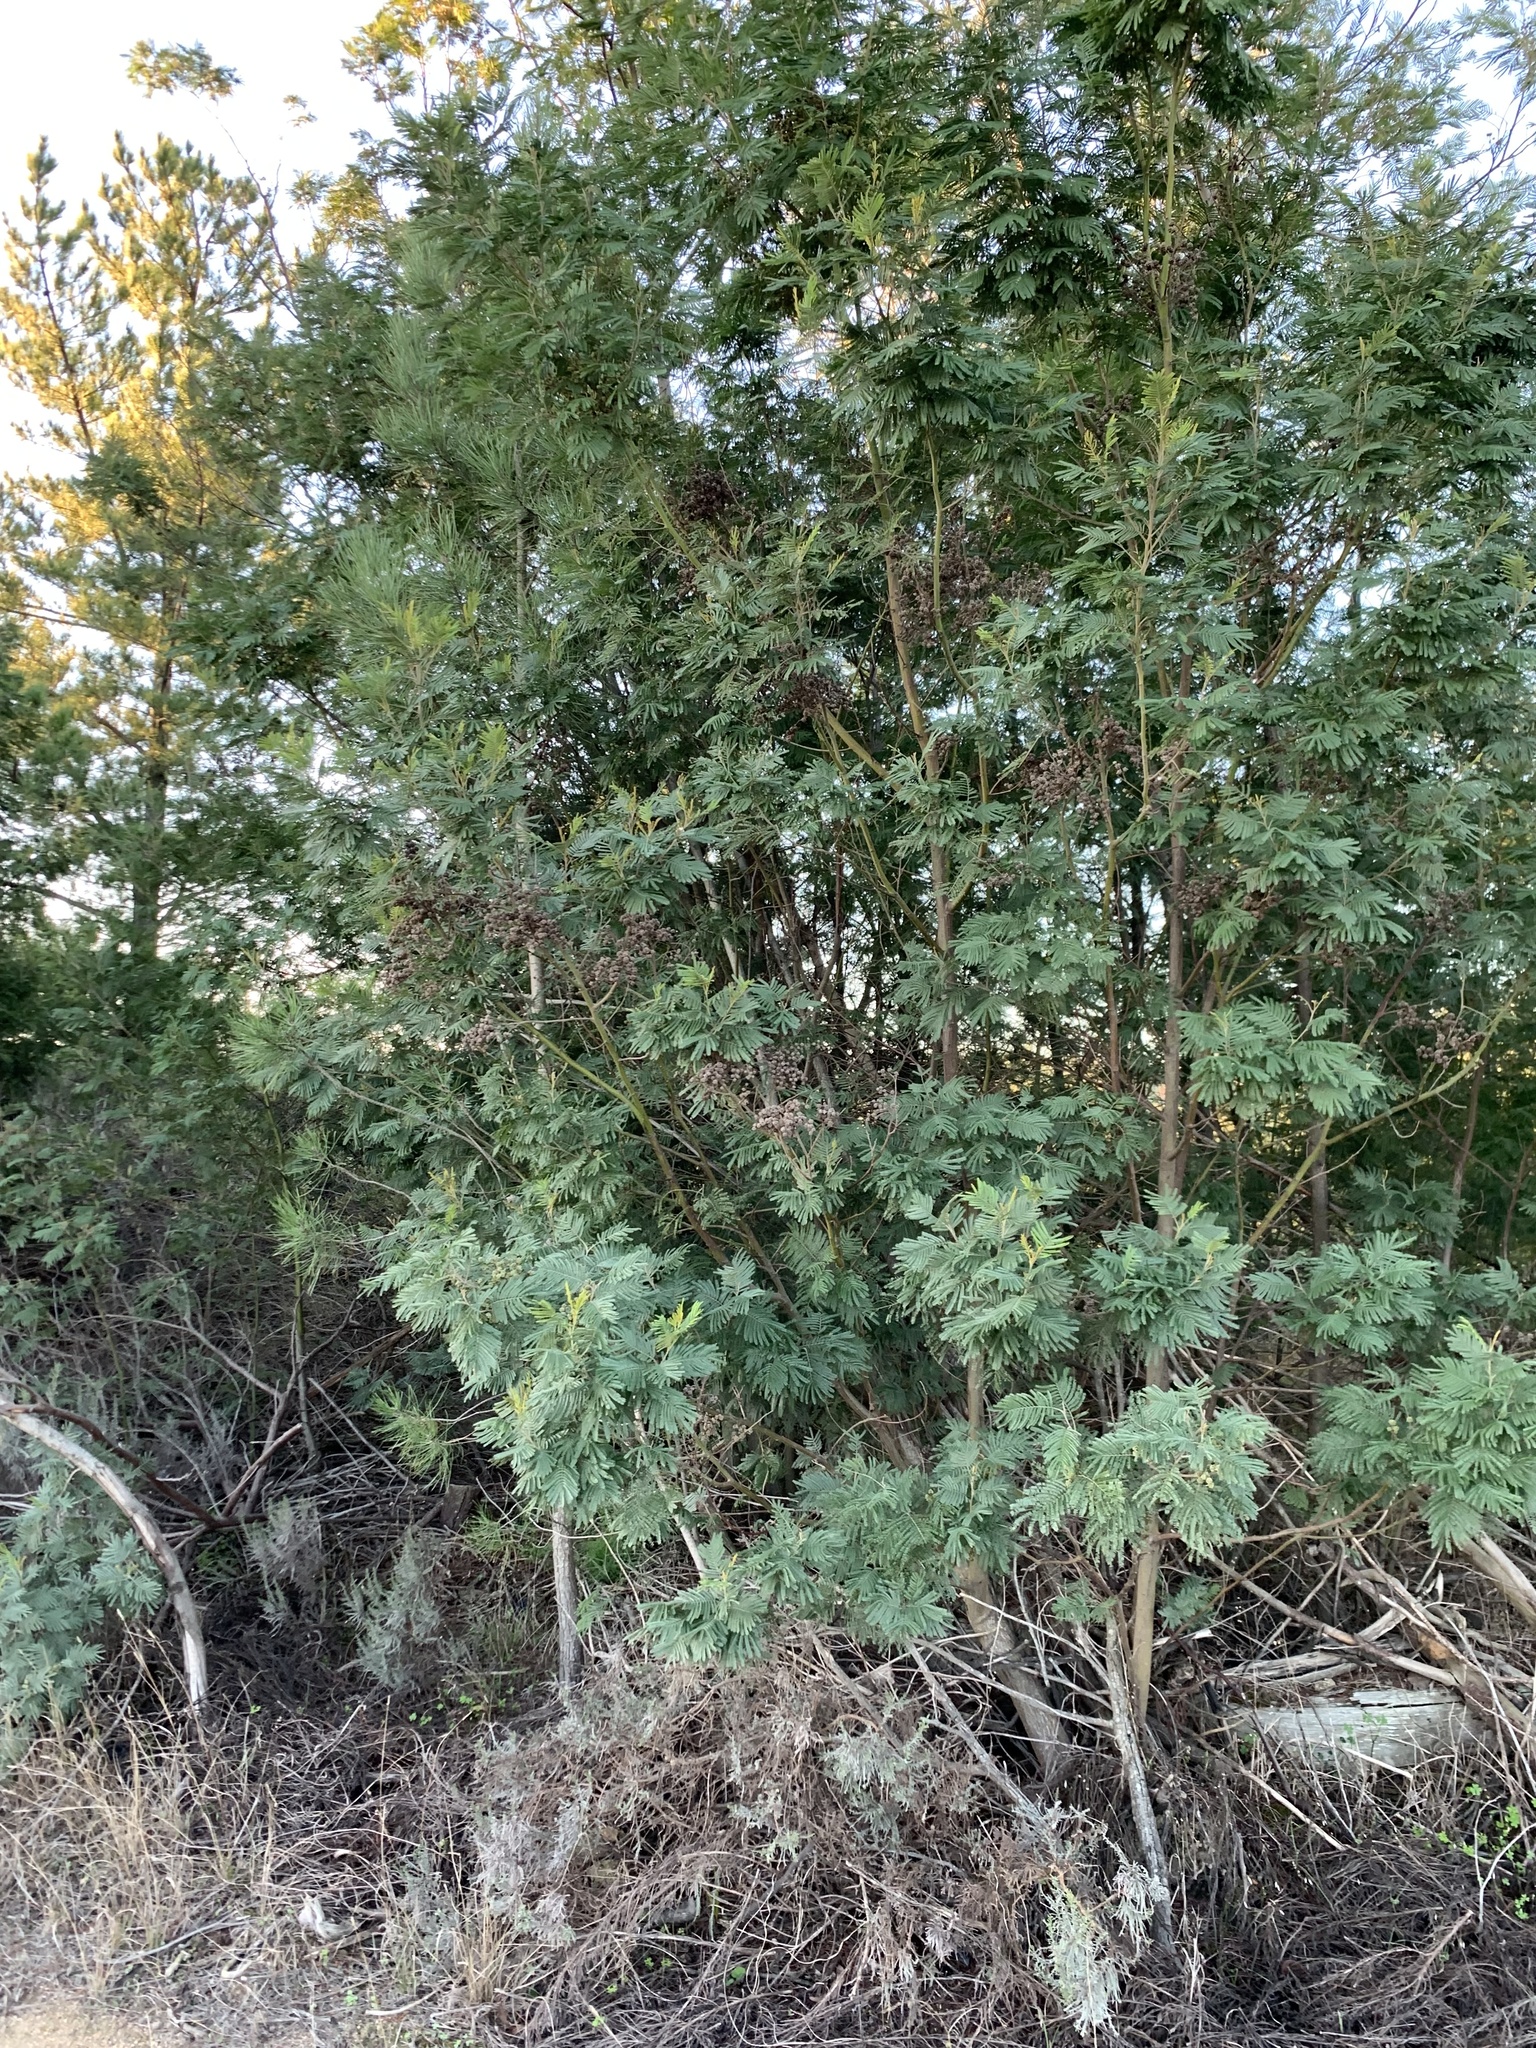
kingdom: Plantae
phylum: Tracheophyta
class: Magnoliopsida
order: Fabales
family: Fabaceae
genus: Acacia
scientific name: Acacia mearnsii
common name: Black wattle
